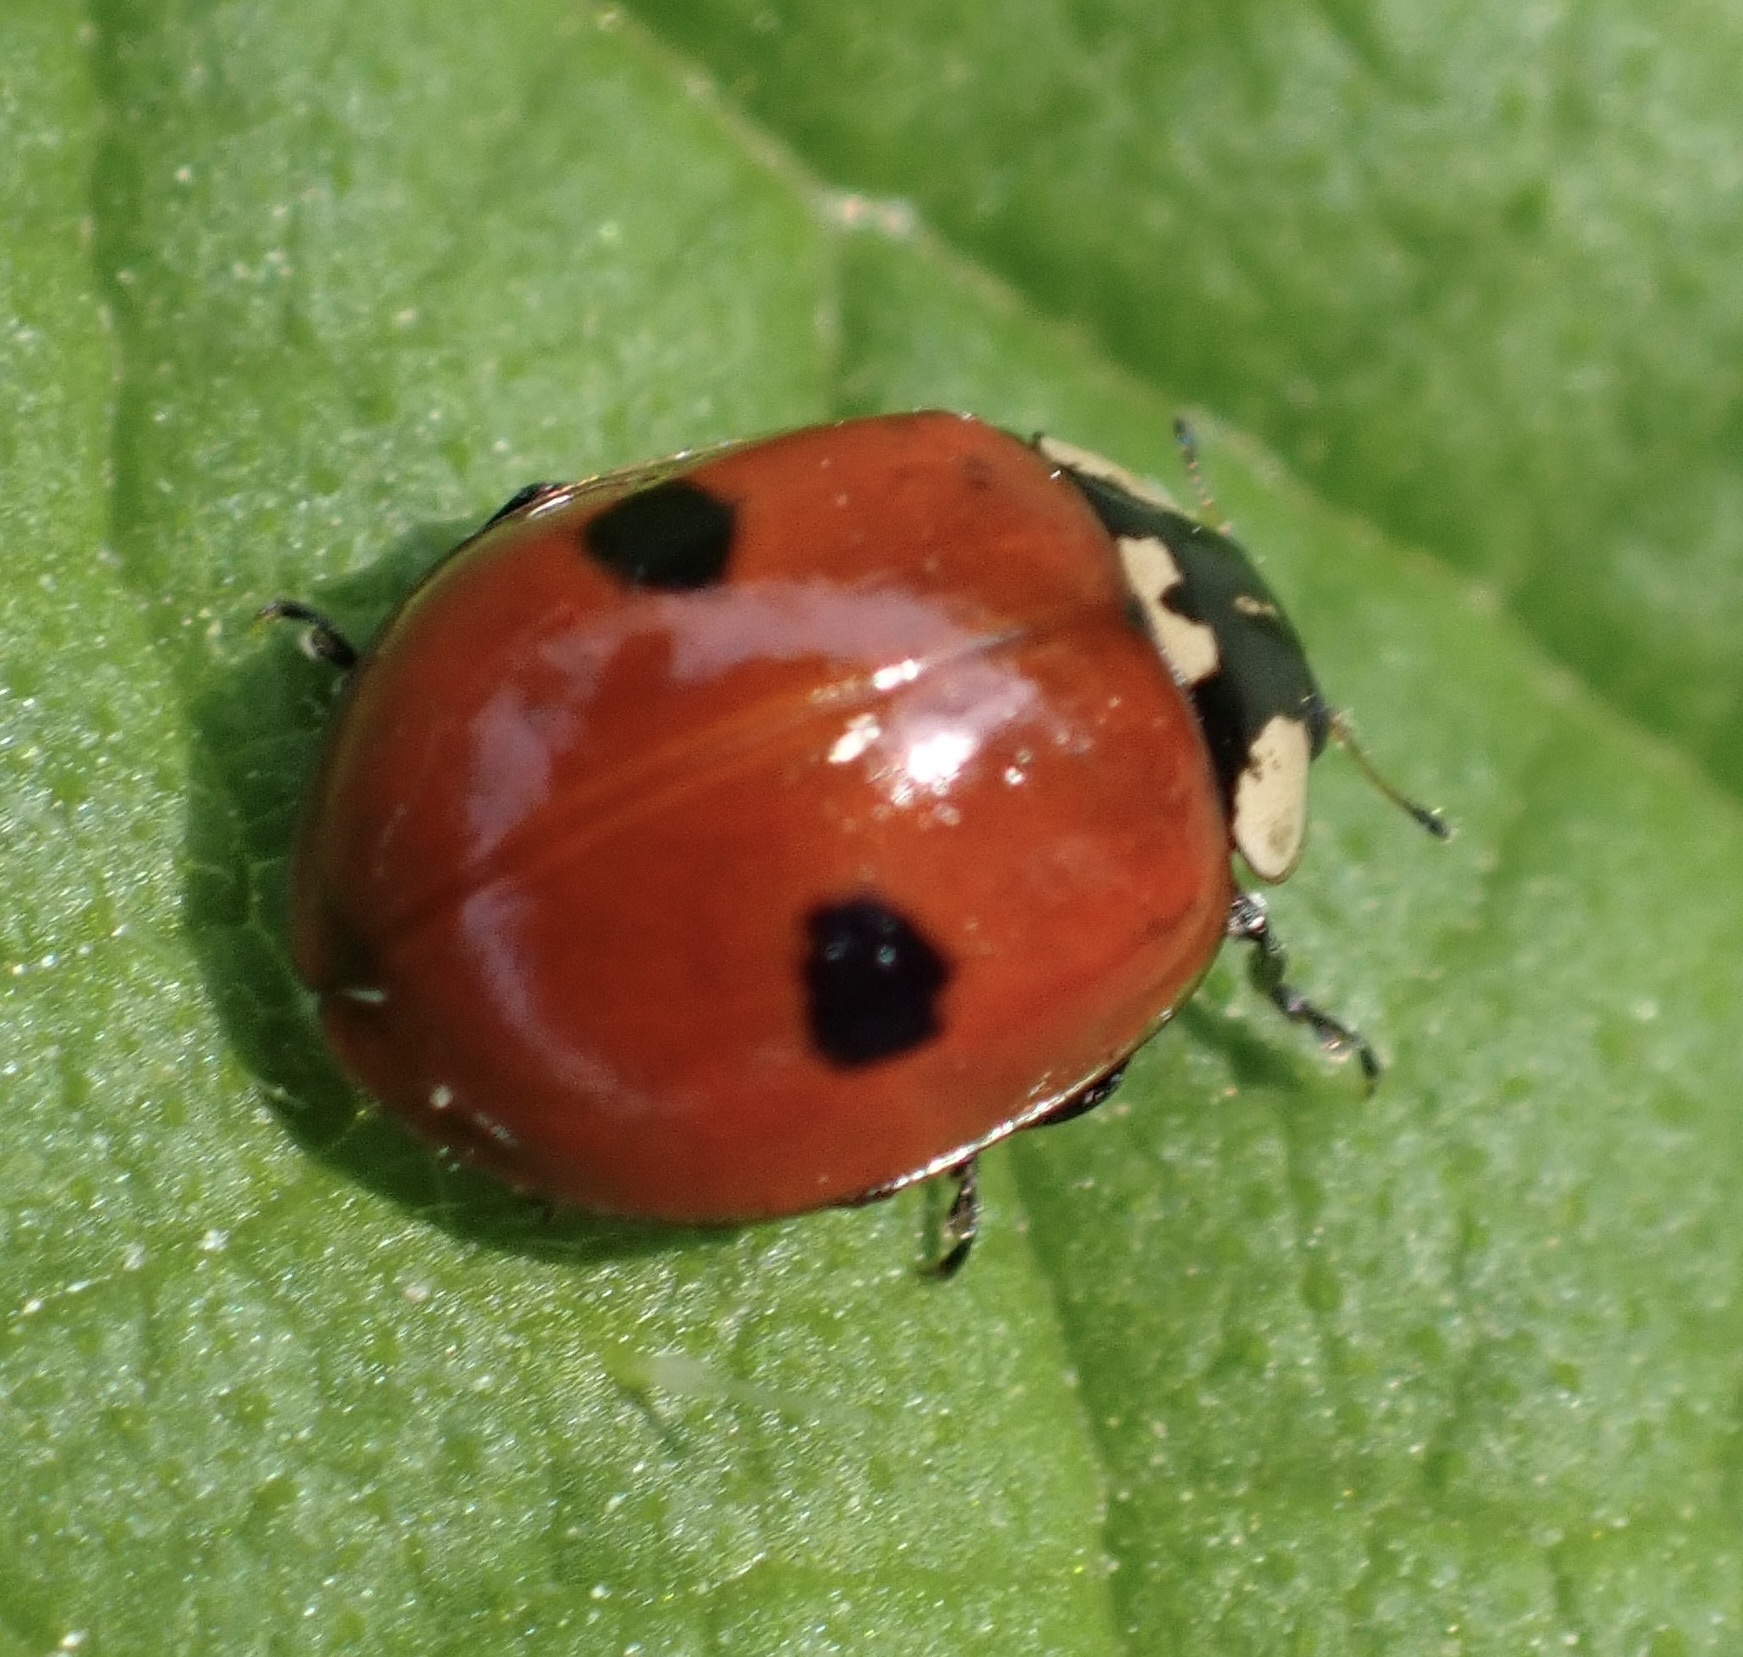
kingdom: Animalia
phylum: Arthropoda
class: Insecta
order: Coleoptera
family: Coccinellidae
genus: Adalia
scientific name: Adalia bipunctata
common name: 2-spot ladybird
